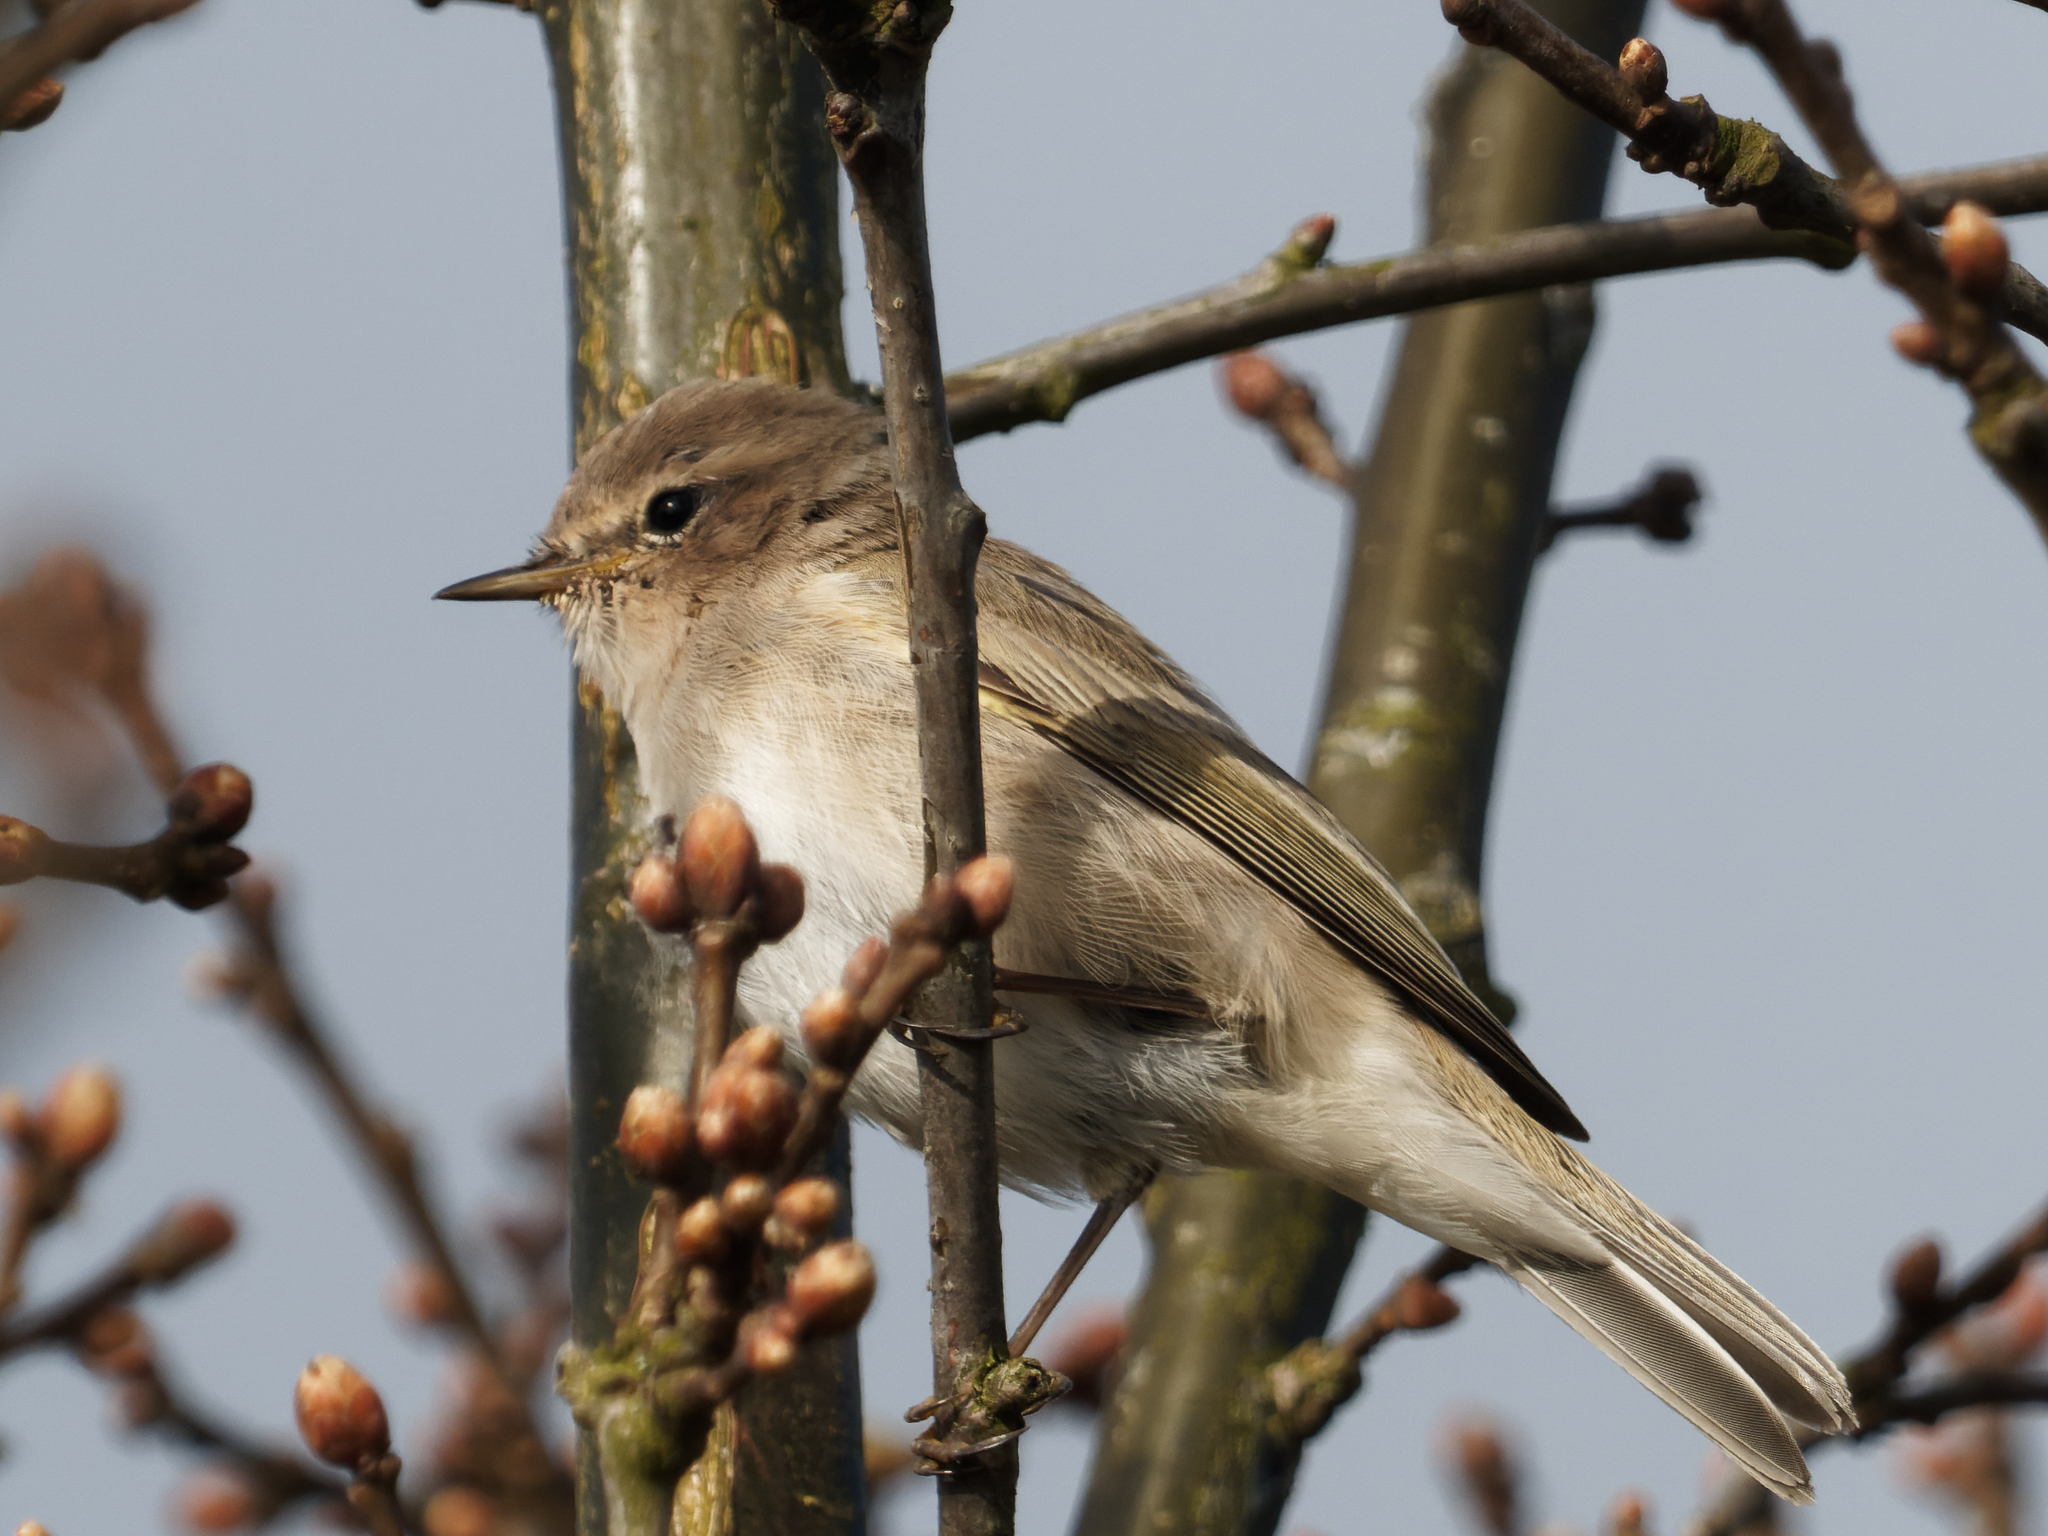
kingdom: Animalia
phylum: Chordata
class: Aves
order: Passeriformes
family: Phylloscopidae
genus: Phylloscopus
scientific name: Phylloscopus collybita
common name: Common chiffchaff
